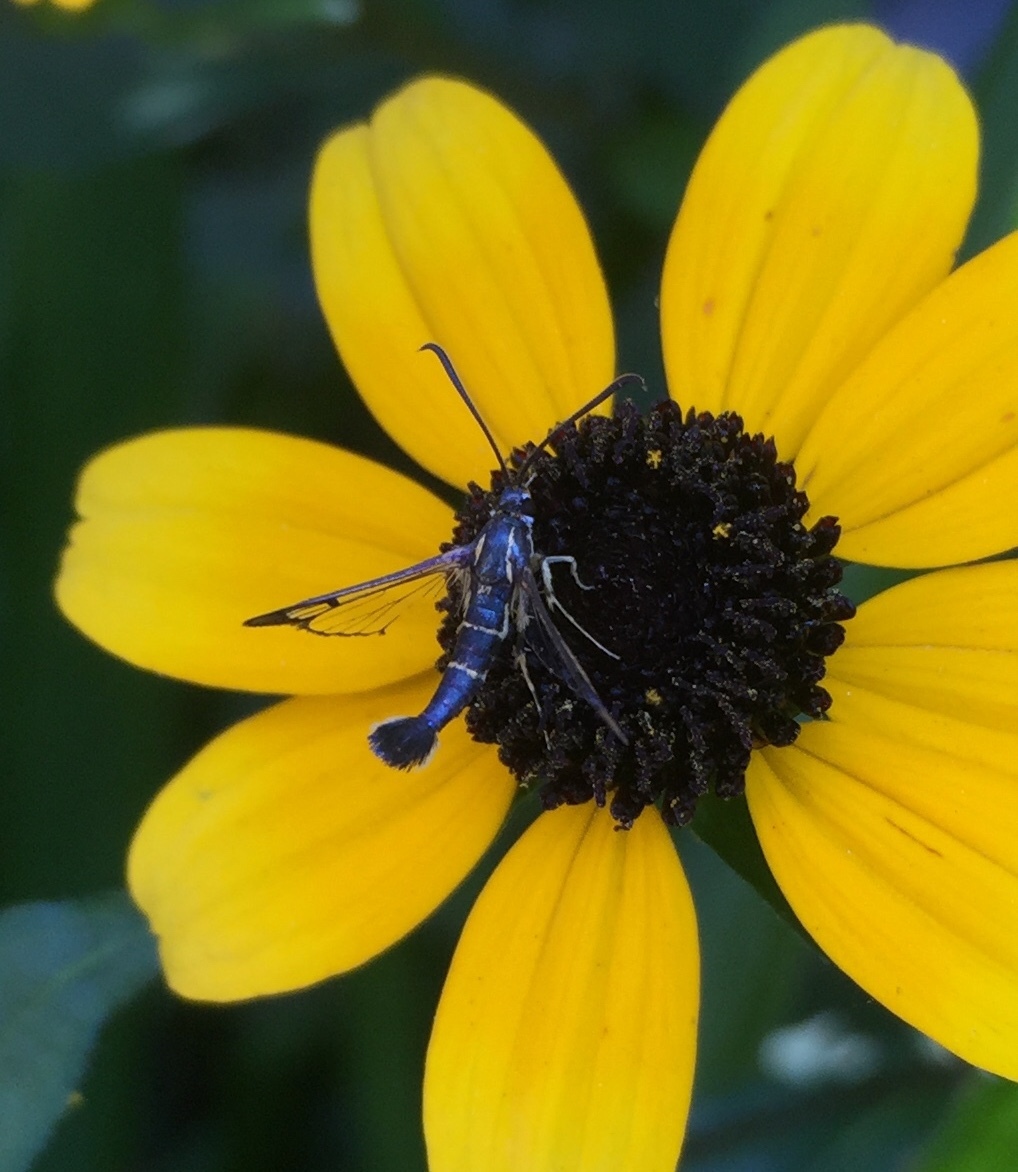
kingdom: Animalia
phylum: Arthropoda
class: Insecta
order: Lepidoptera
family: Sesiidae
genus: Synanthedon
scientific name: Synanthedon scitula
